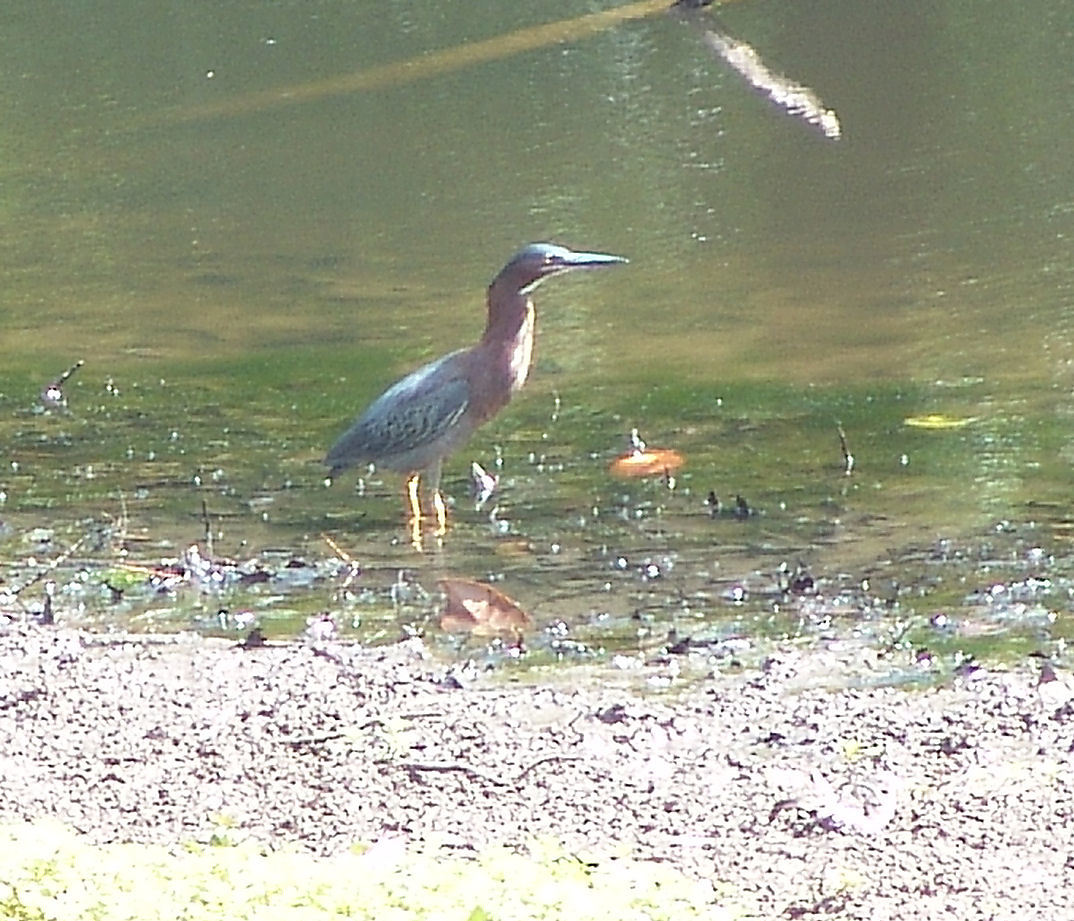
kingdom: Animalia
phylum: Chordata
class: Aves
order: Pelecaniformes
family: Ardeidae
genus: Butorides
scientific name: Butorides virescens
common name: Green heron
